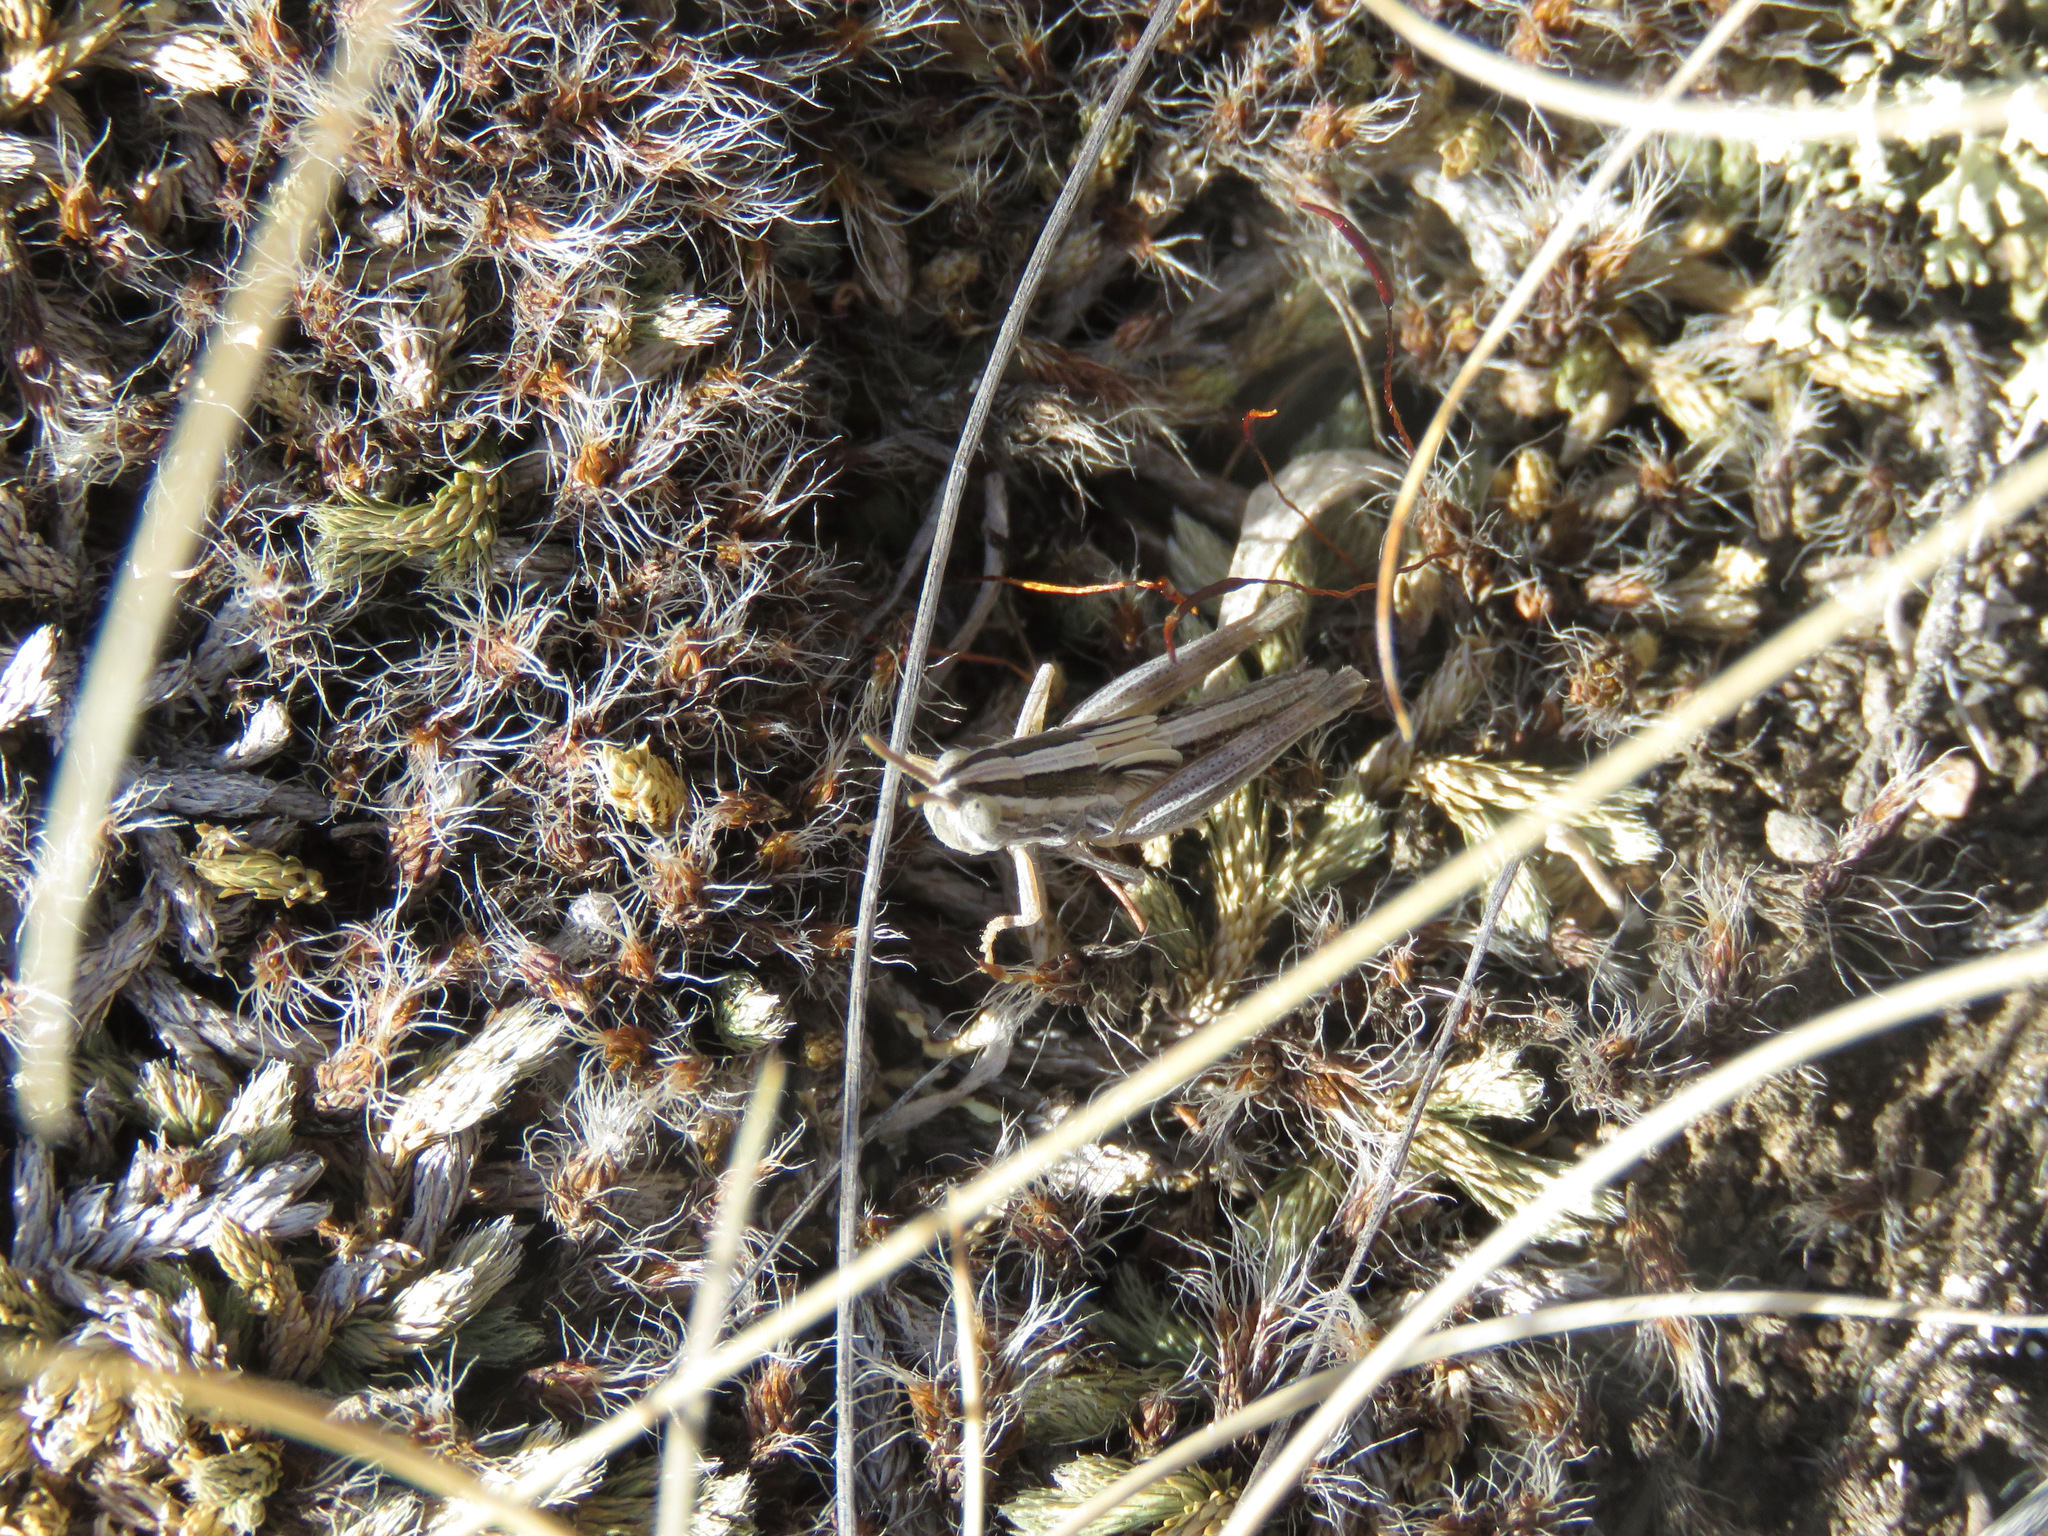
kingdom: Animalia
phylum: Arthropoda
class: Insecta
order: Orthoptera
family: Acrididae
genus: Amphitornus
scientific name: Amphitornus coloradus
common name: Striped grasshopper
